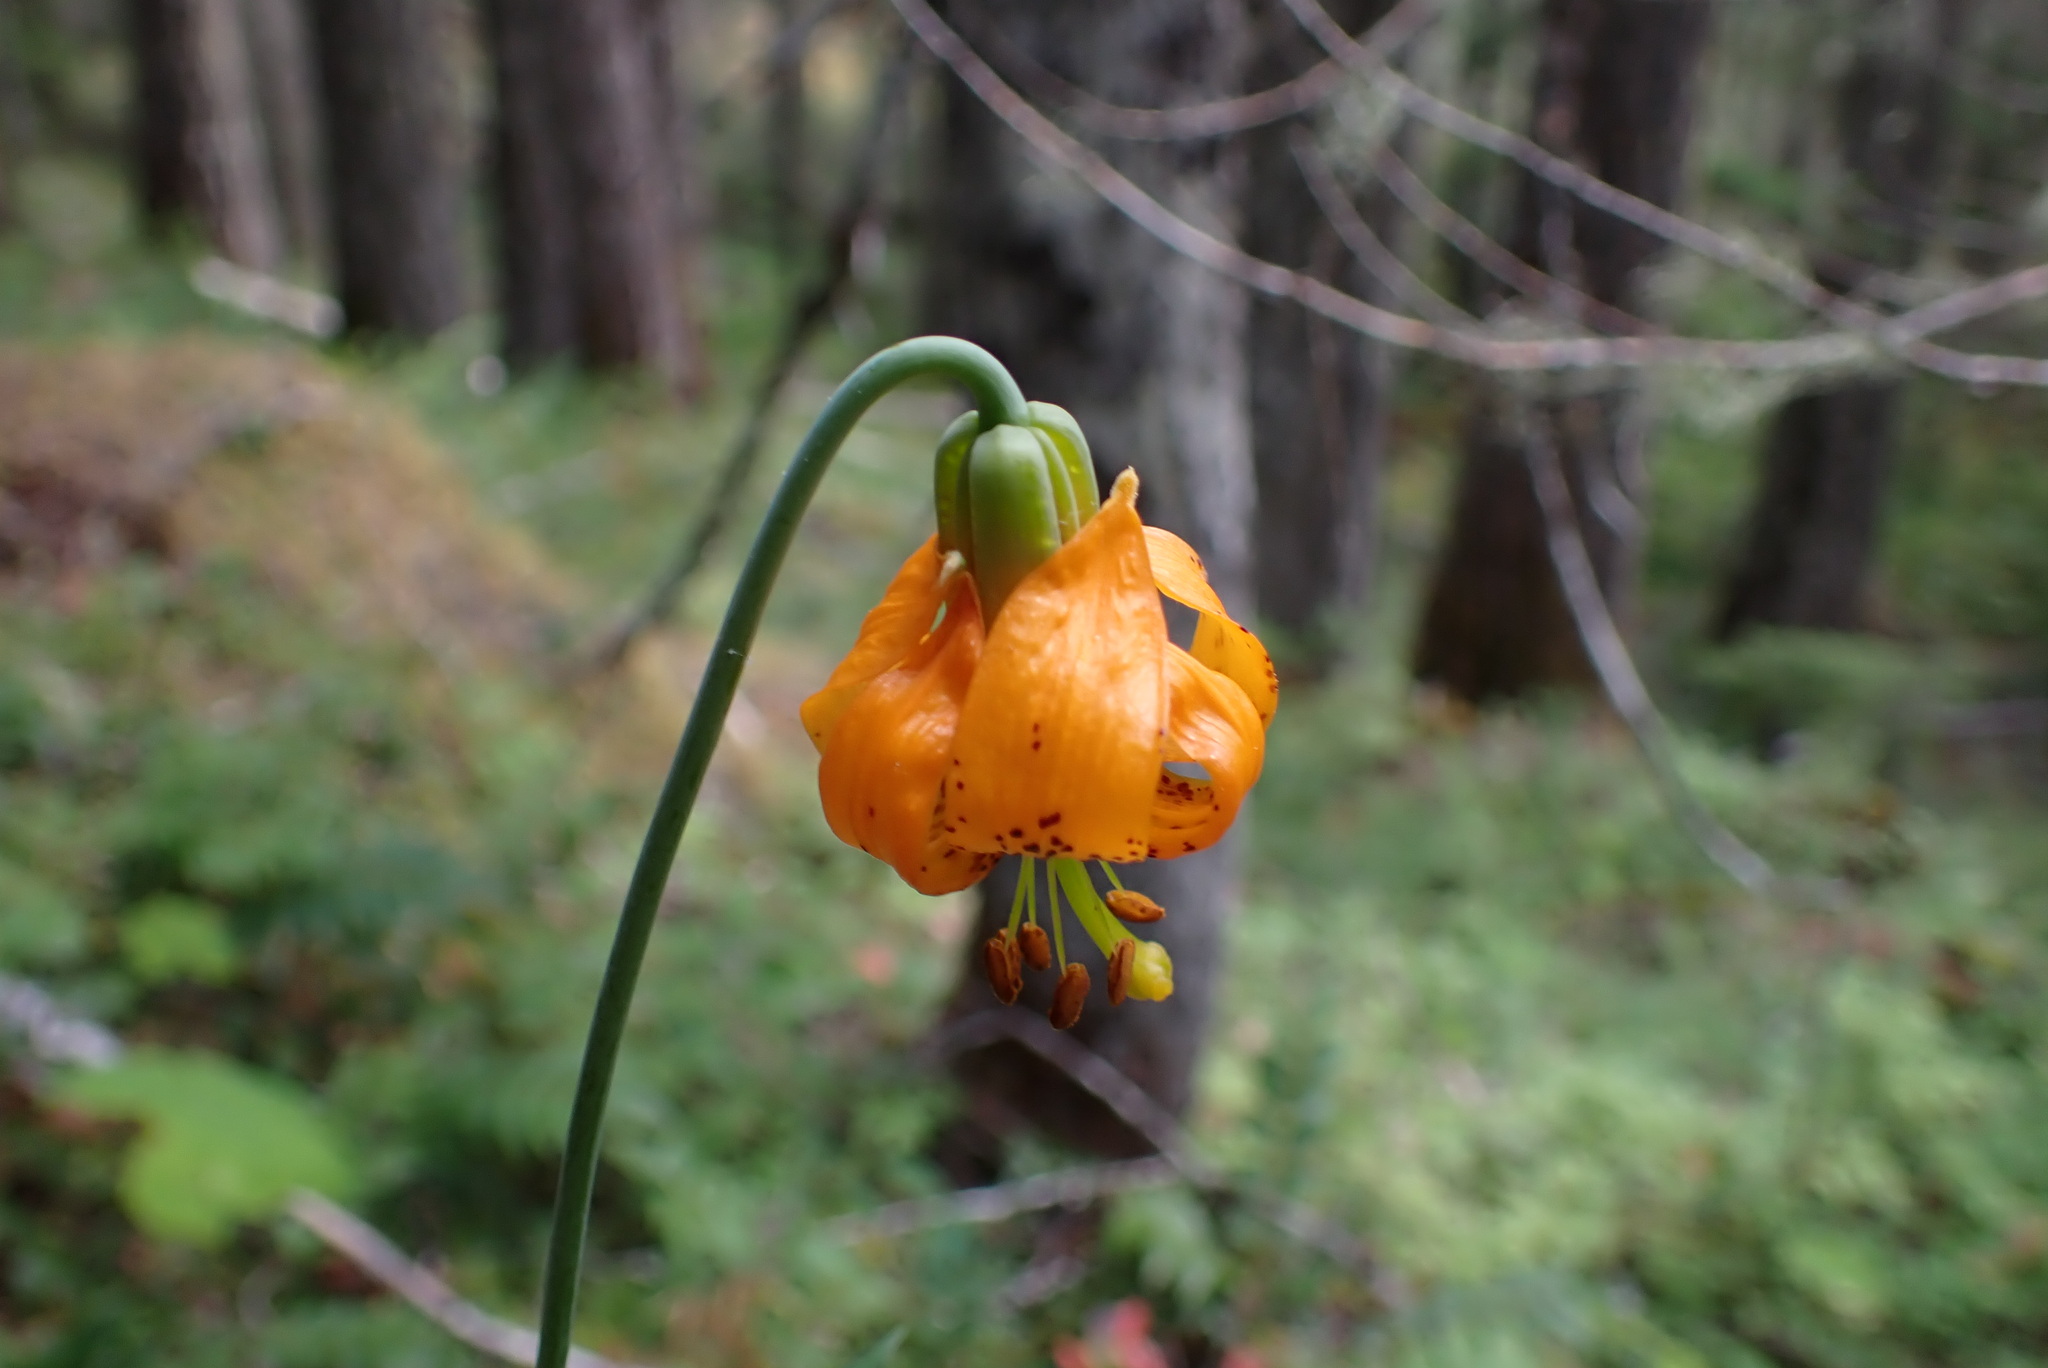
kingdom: Plantae
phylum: Tracheophyta
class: Liliopsida
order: Liliales
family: Liliaceae
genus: Lilium
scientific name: Lilium columbianum
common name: Columbia lily
